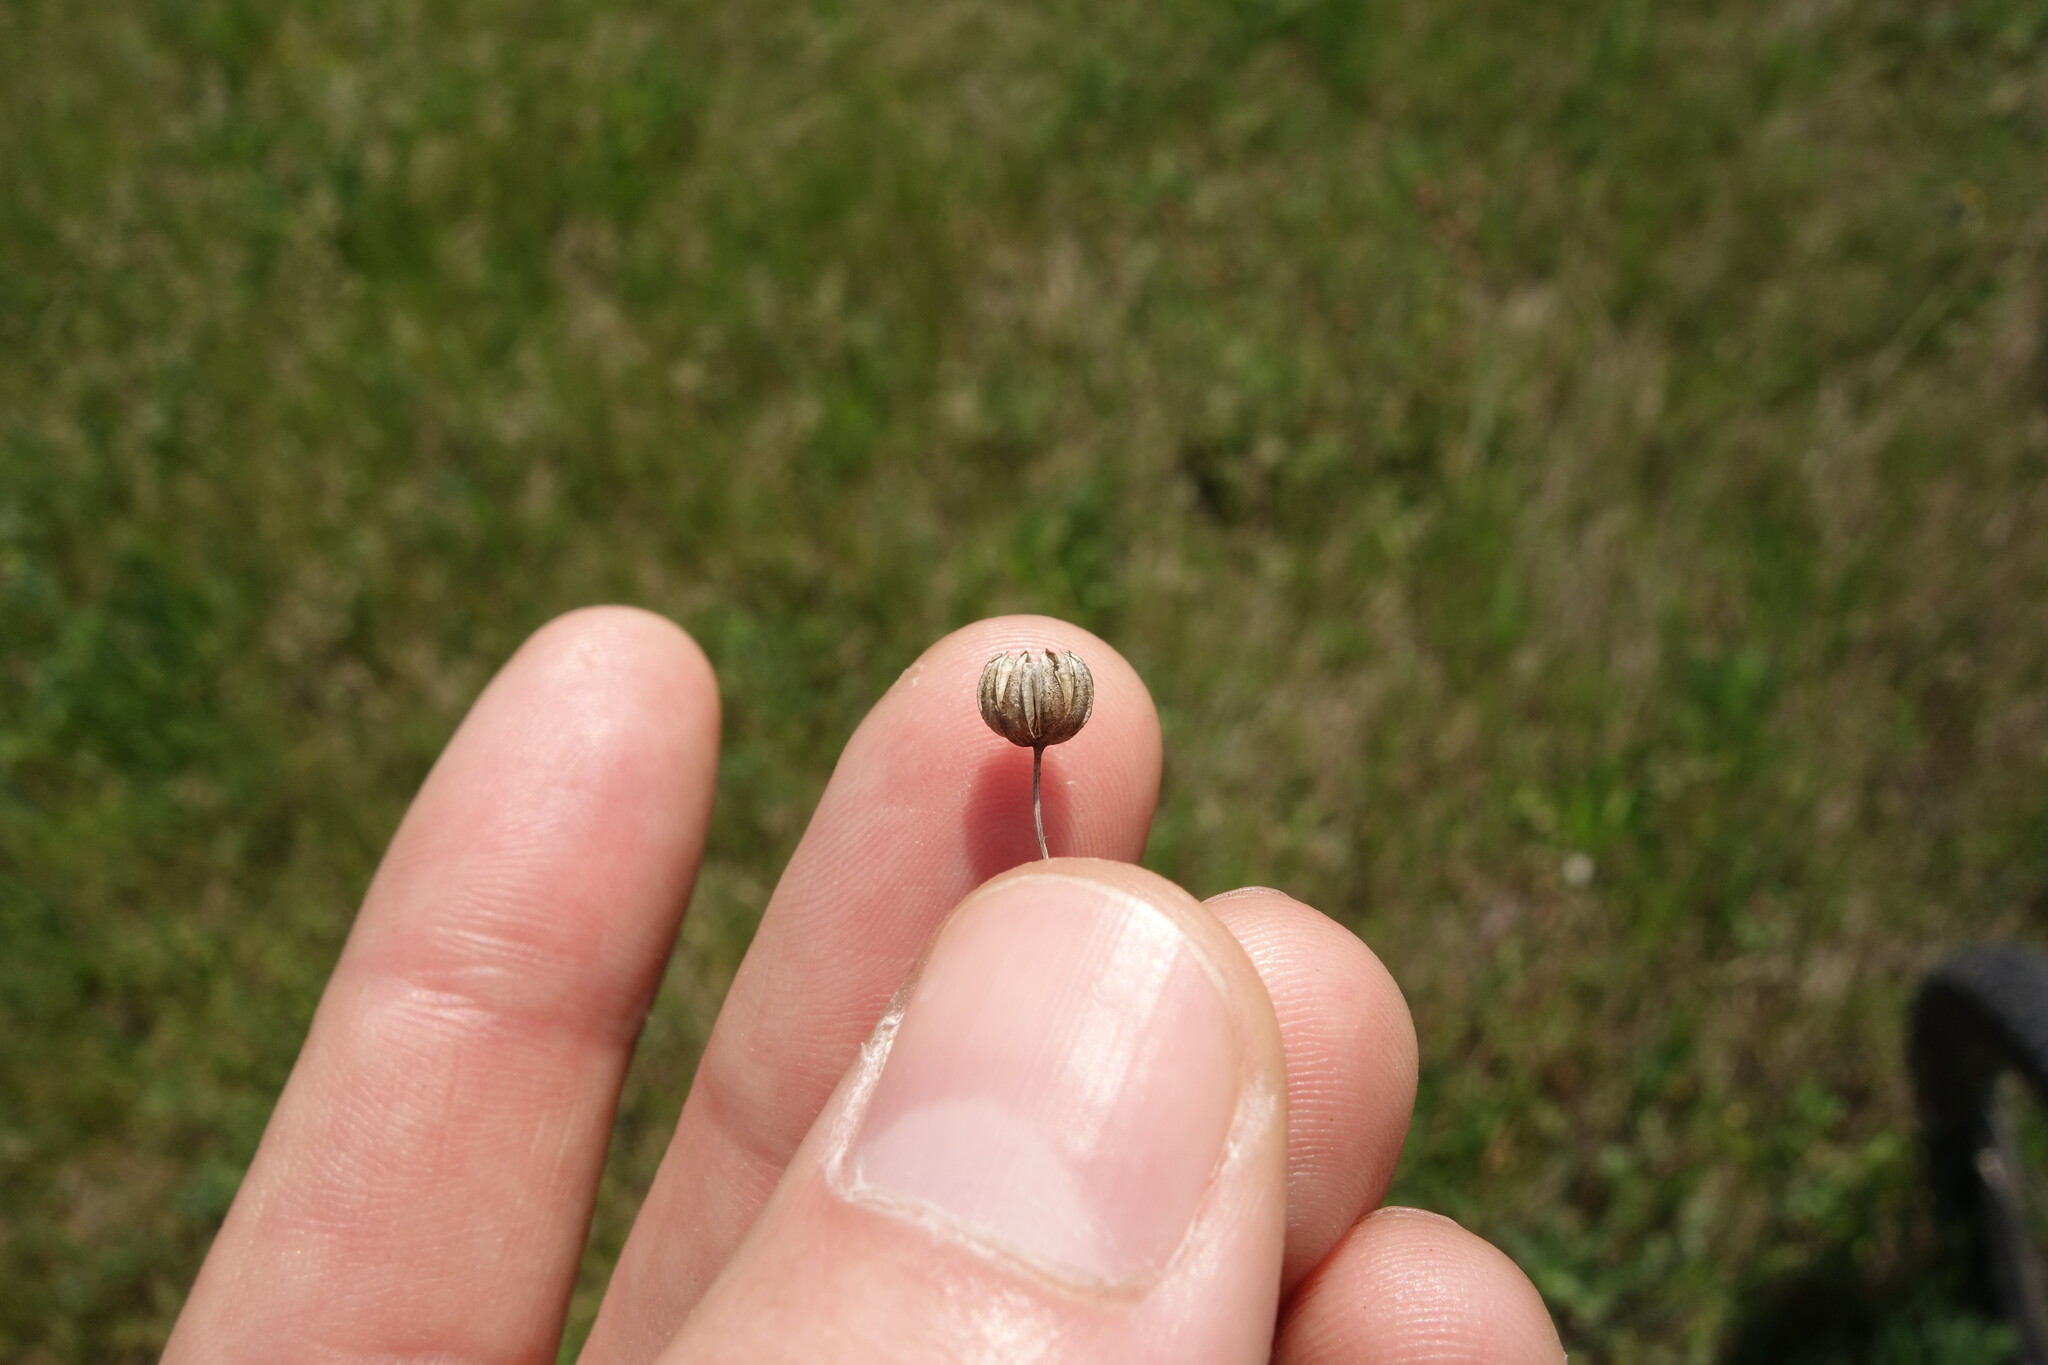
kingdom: Plantae
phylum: Tracheophyta
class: Magnoliopsida
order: Malpighiales
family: Linaceae
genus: Linum
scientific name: Linum perenne
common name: Blue flax
